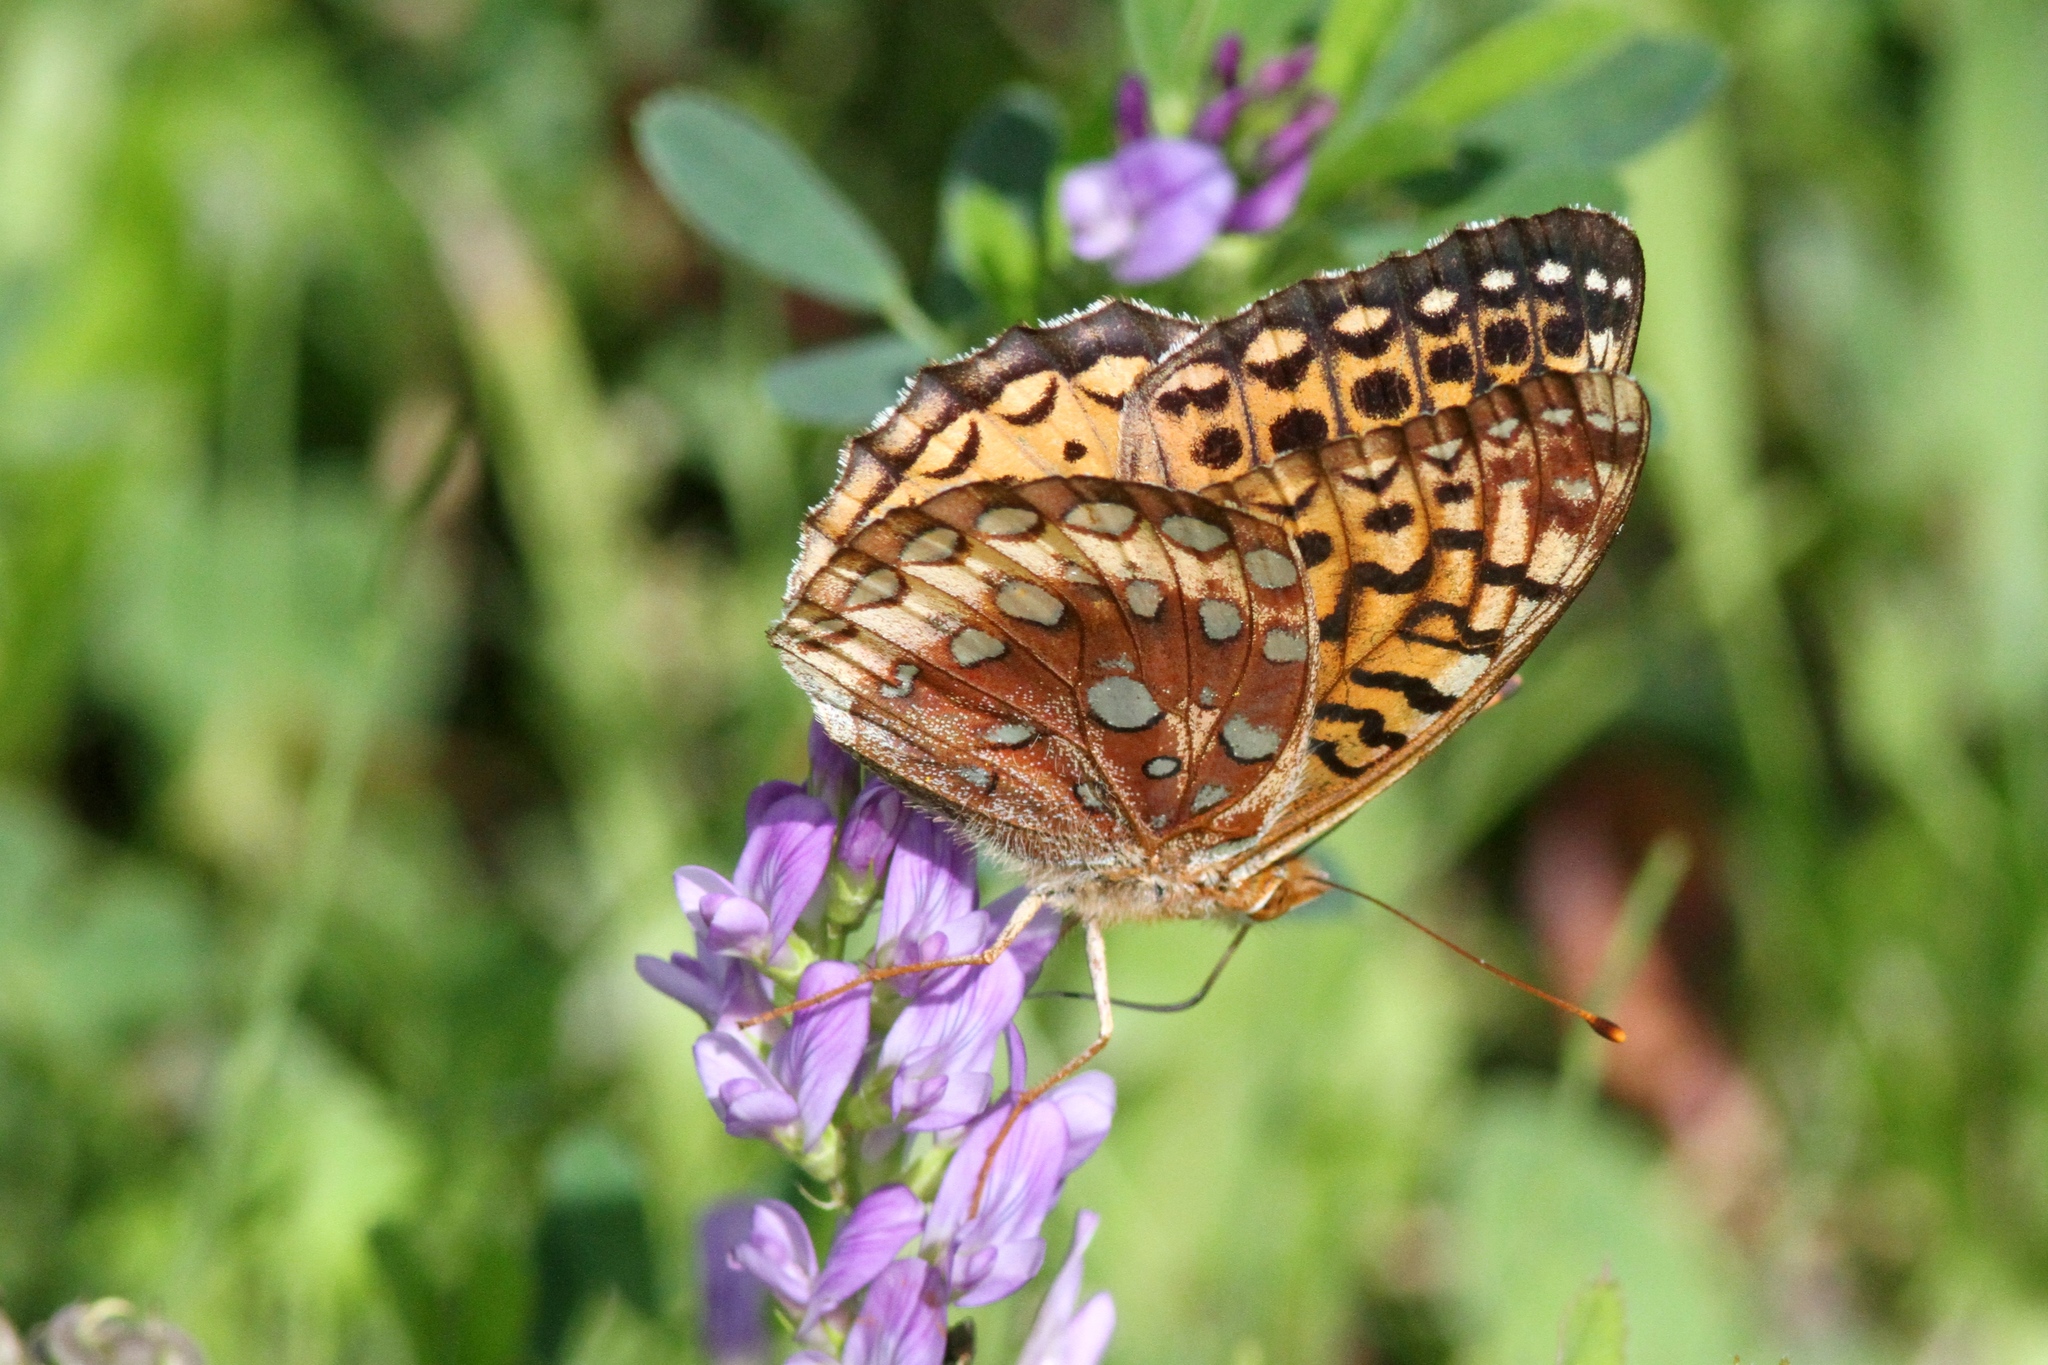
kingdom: Animalia
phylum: Arthropoda
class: Insecta
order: Lepidoptera
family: Nymphalidae
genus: Speyeria
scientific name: Speyeria cybele
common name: Great spangled fritillary
